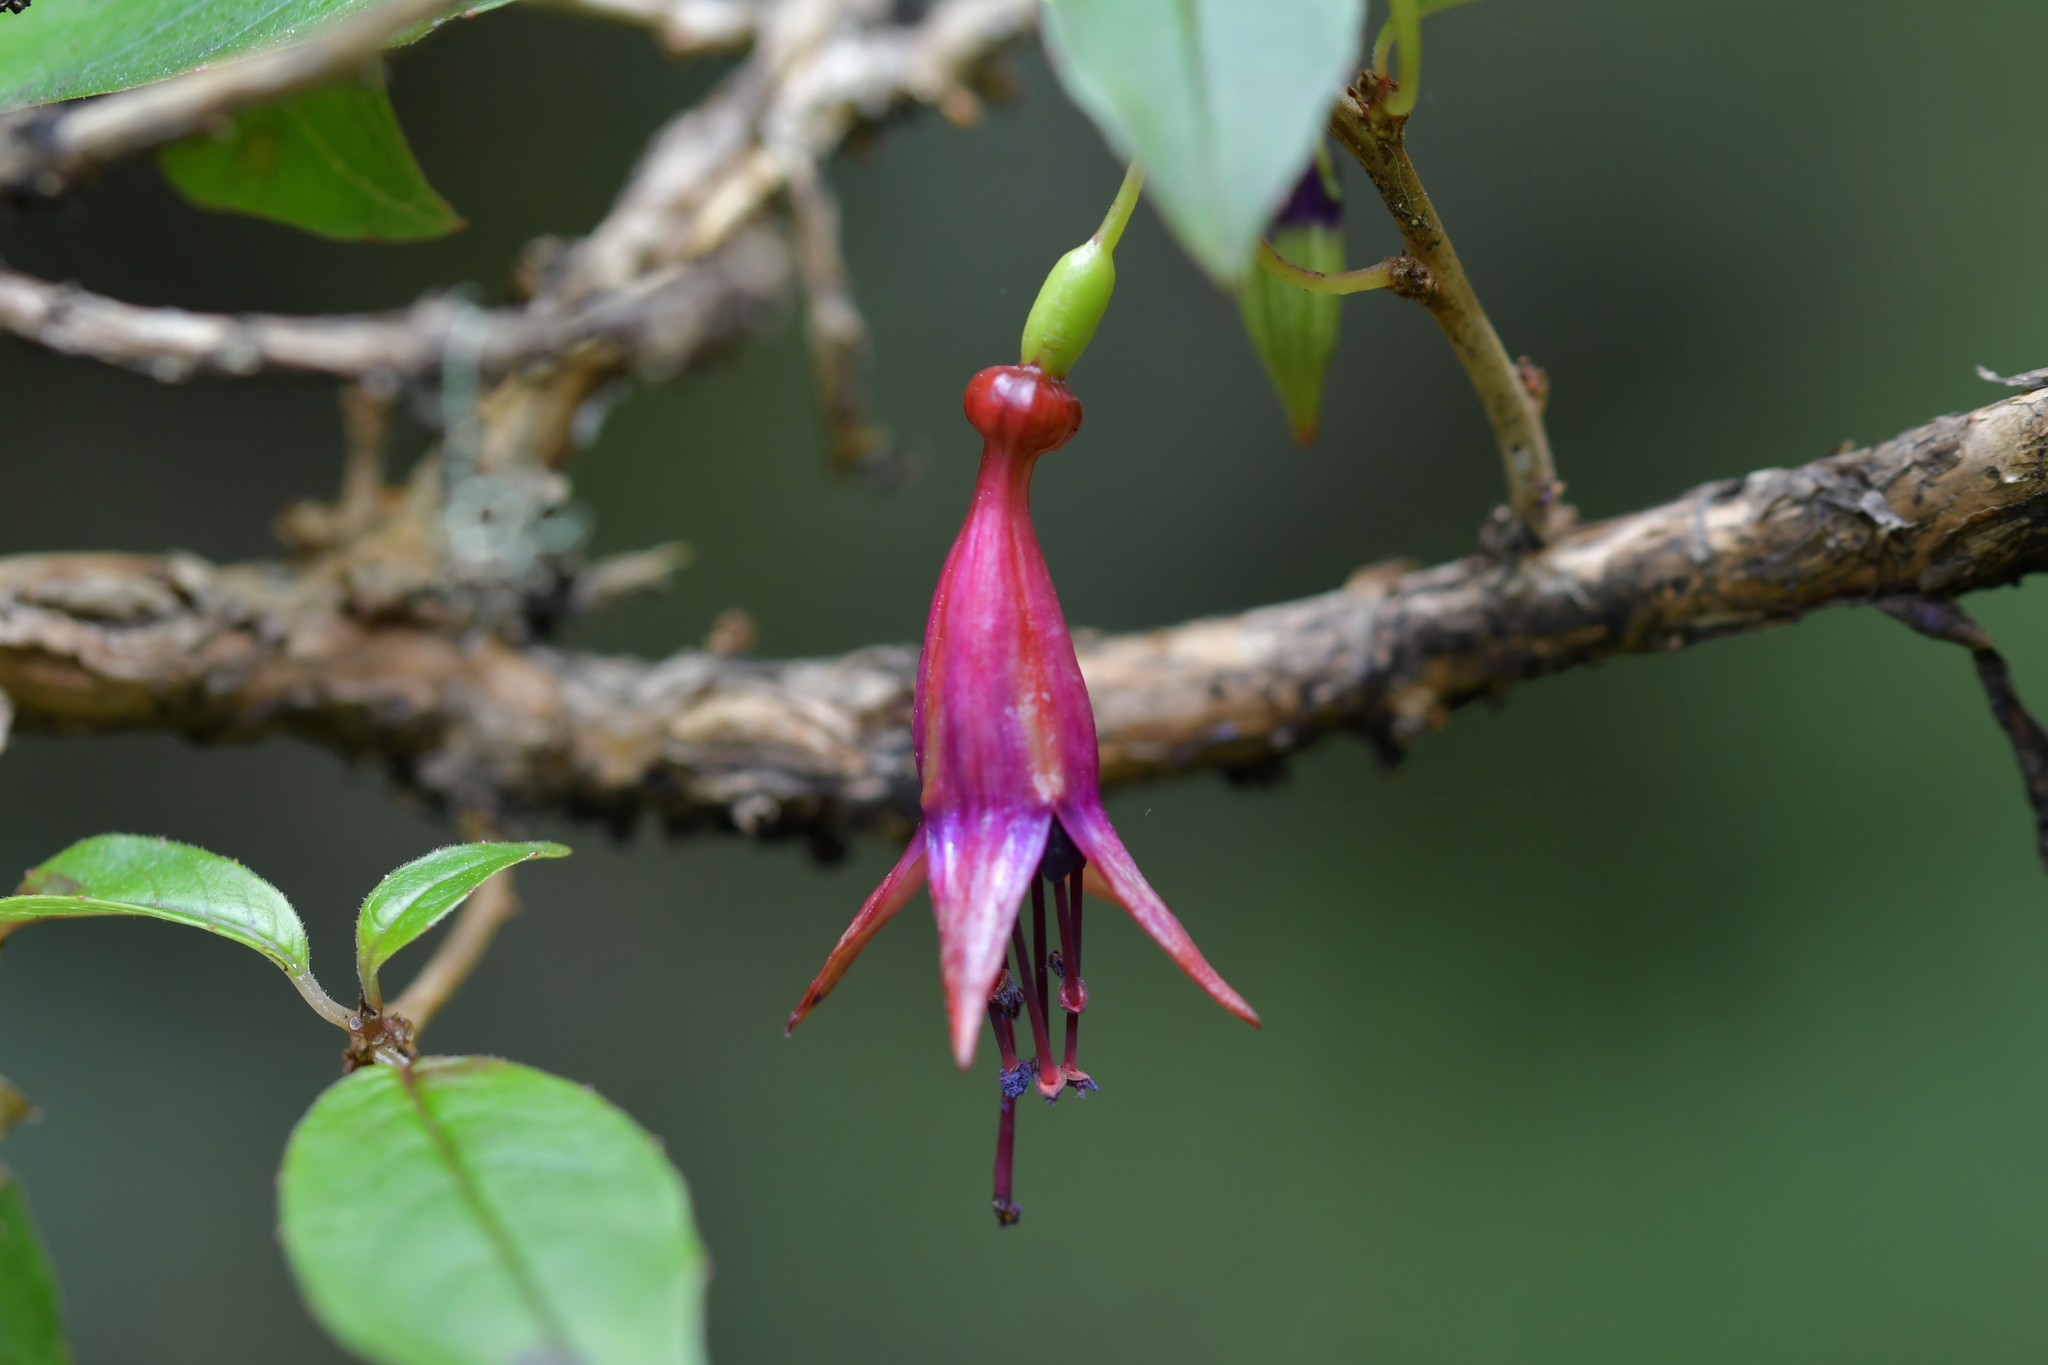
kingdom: Plantae
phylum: Tracheophyta
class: Magnoliopsida
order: Myrtales
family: Onagraceae
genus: Fuchsia
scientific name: Fuchsia excorticata
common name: Tree fuchsia
